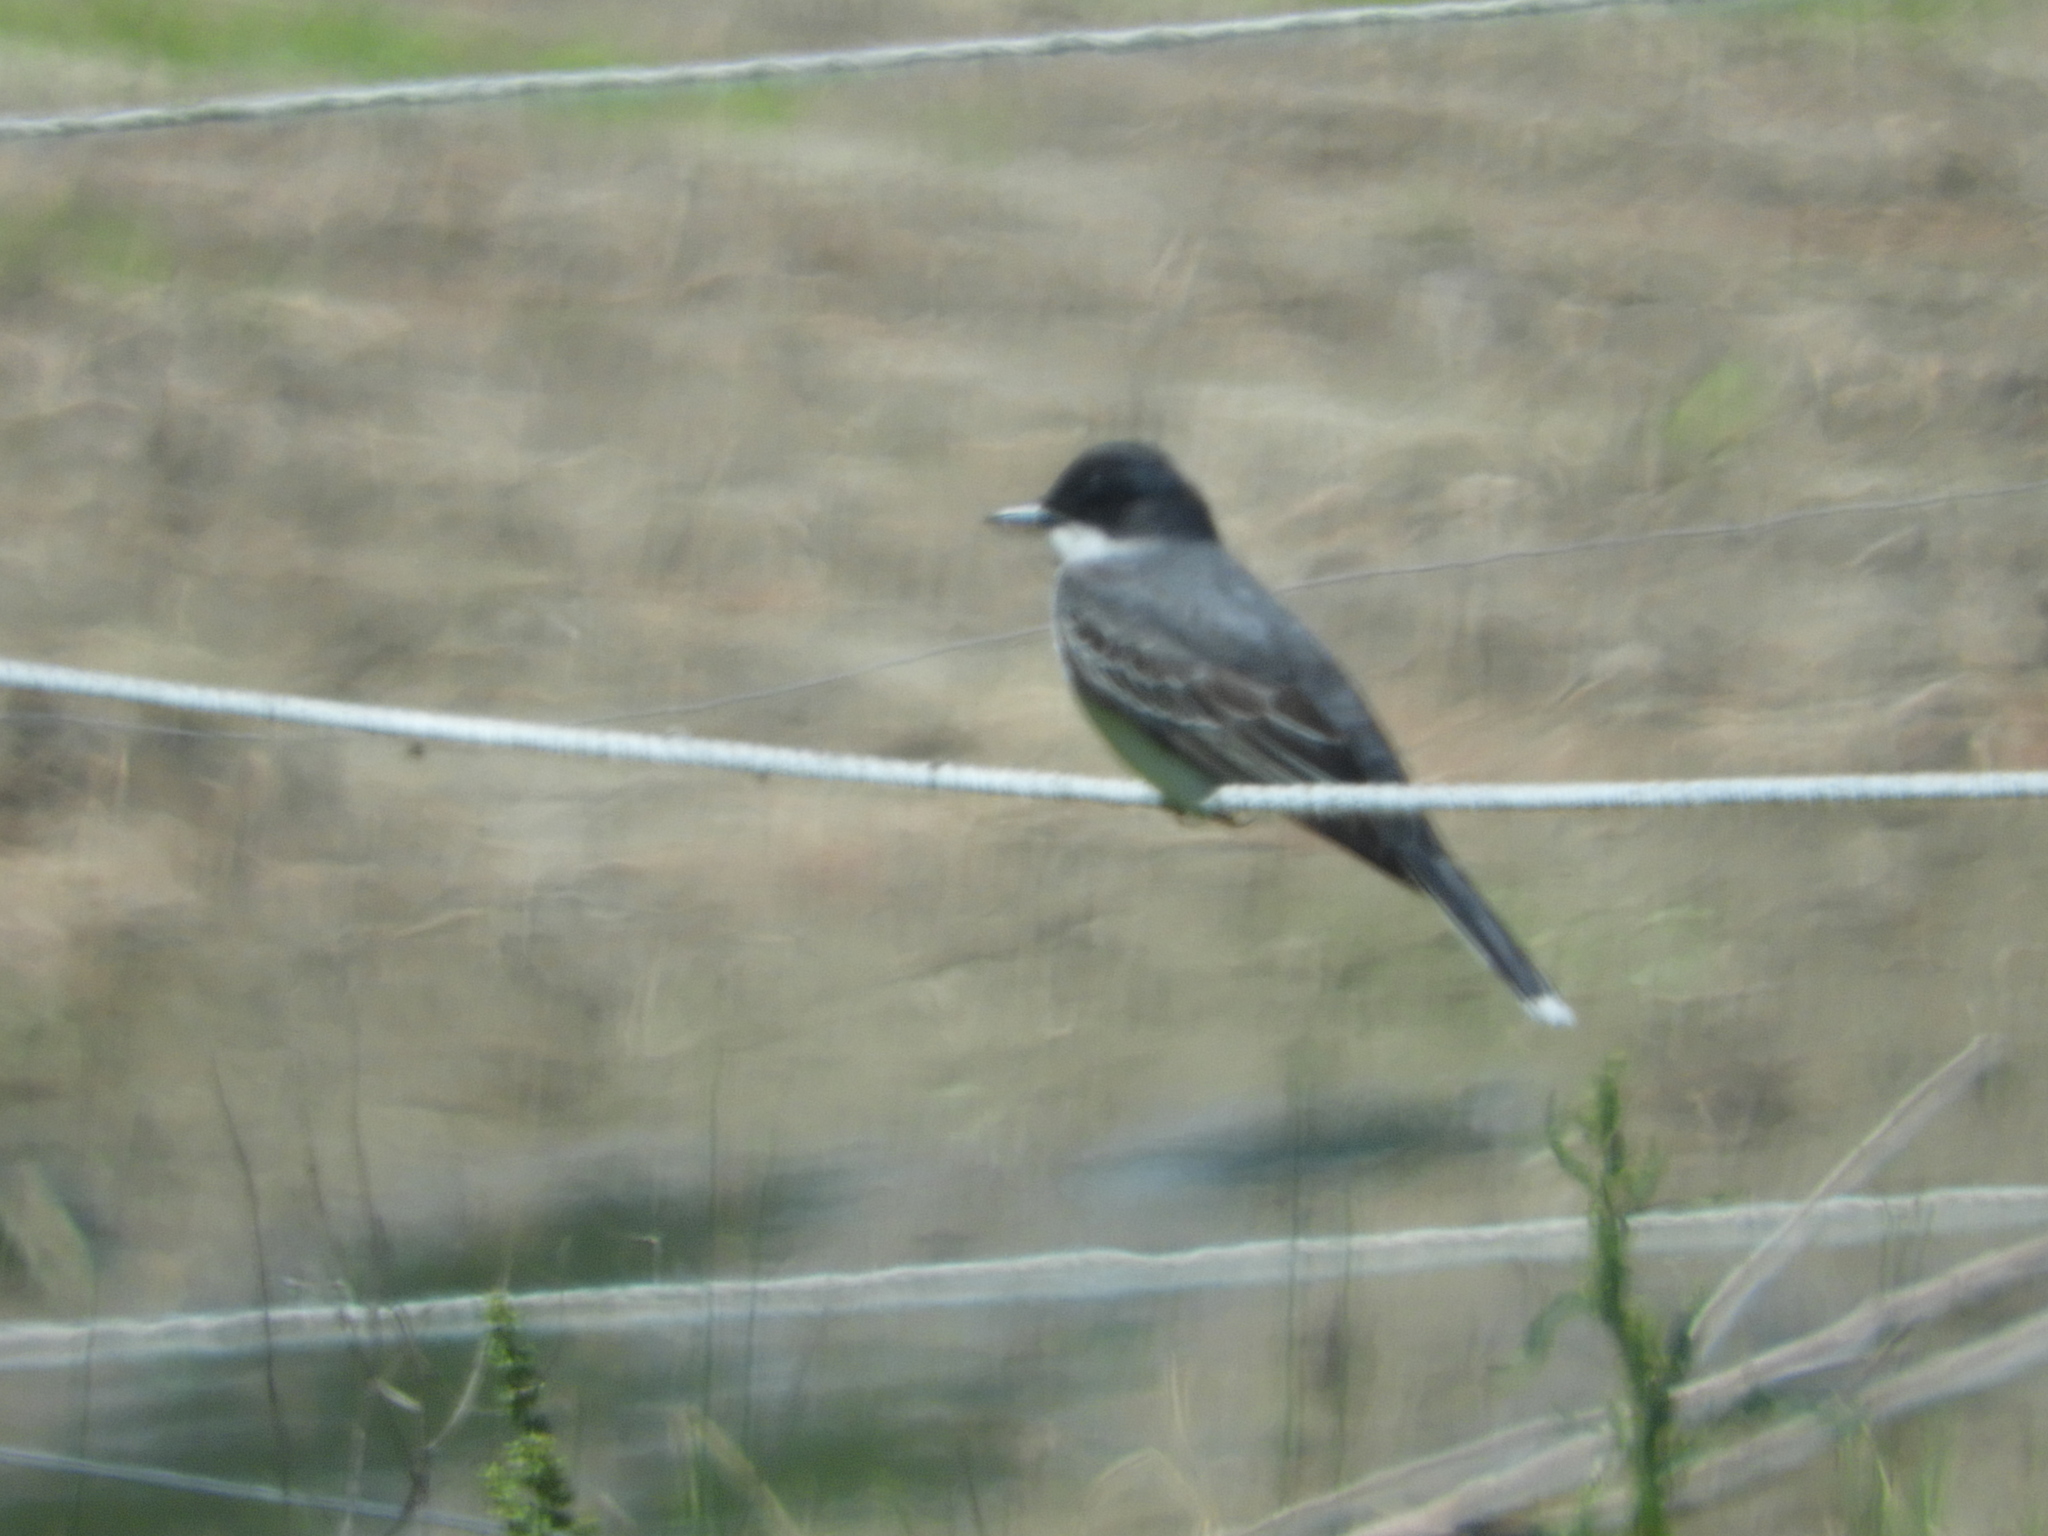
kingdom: Animalia
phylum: Chordata
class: Aves
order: Passeriformes
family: Tyrannidae
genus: Tyrannus
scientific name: Tyrannus tyrannus
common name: Eastern kingbird
